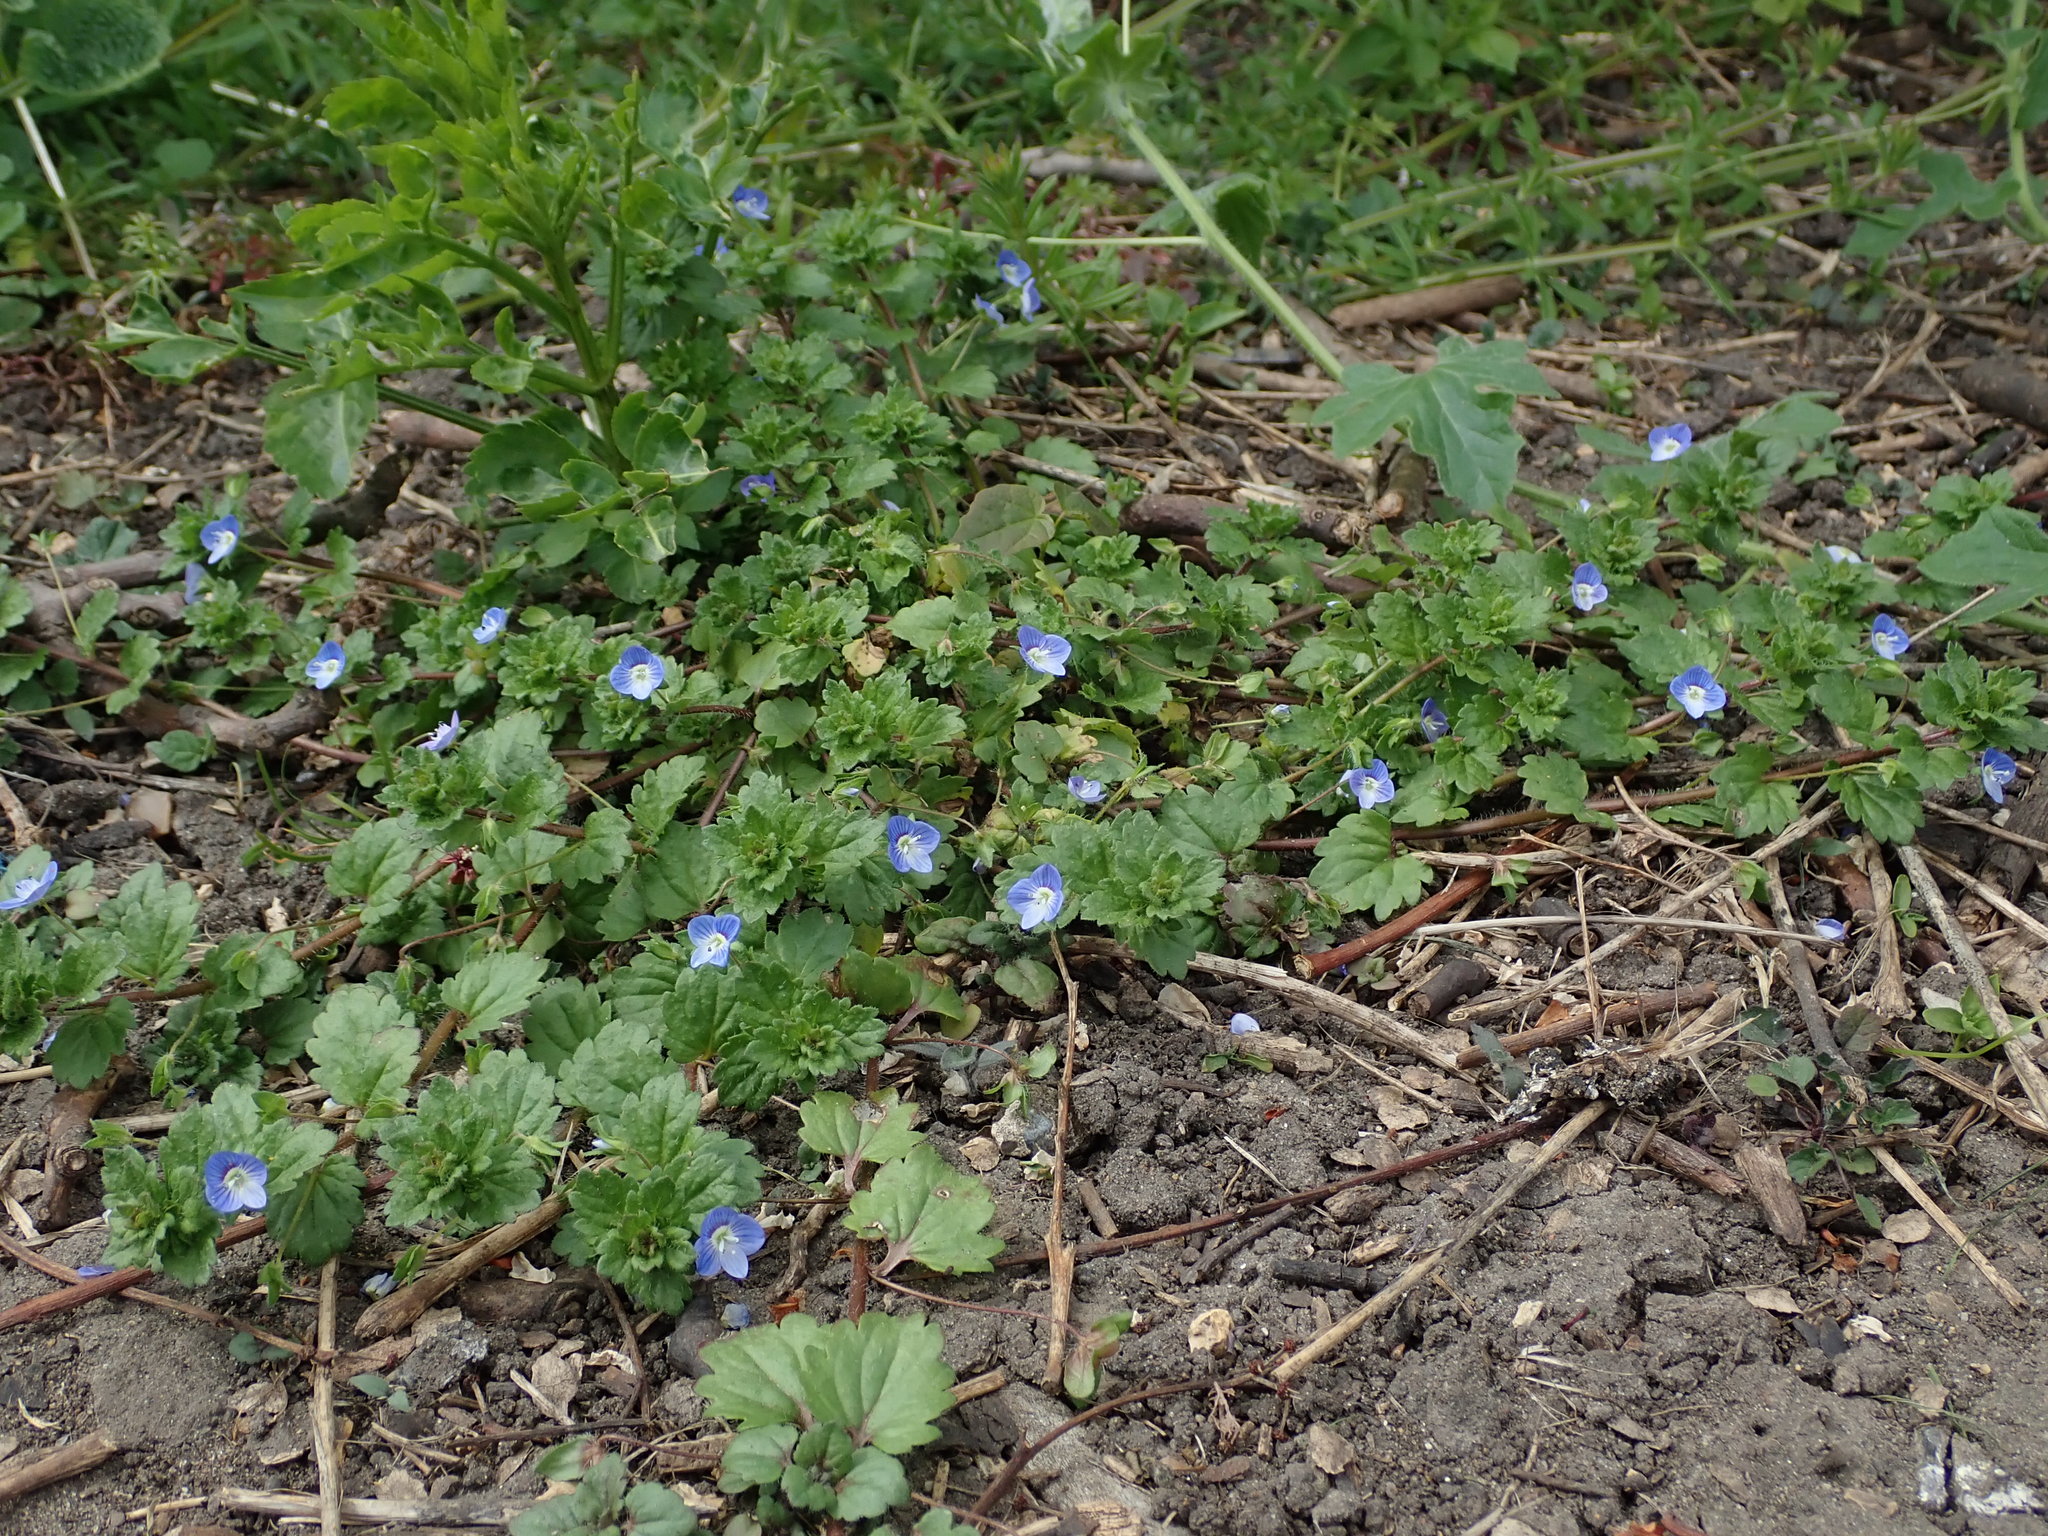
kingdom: Plantae
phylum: Tracheophyta
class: Magnoliopsida
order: Lamiales
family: Plantaginaceae
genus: Veronica
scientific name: Veronica persica
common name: Common field-speedwell
